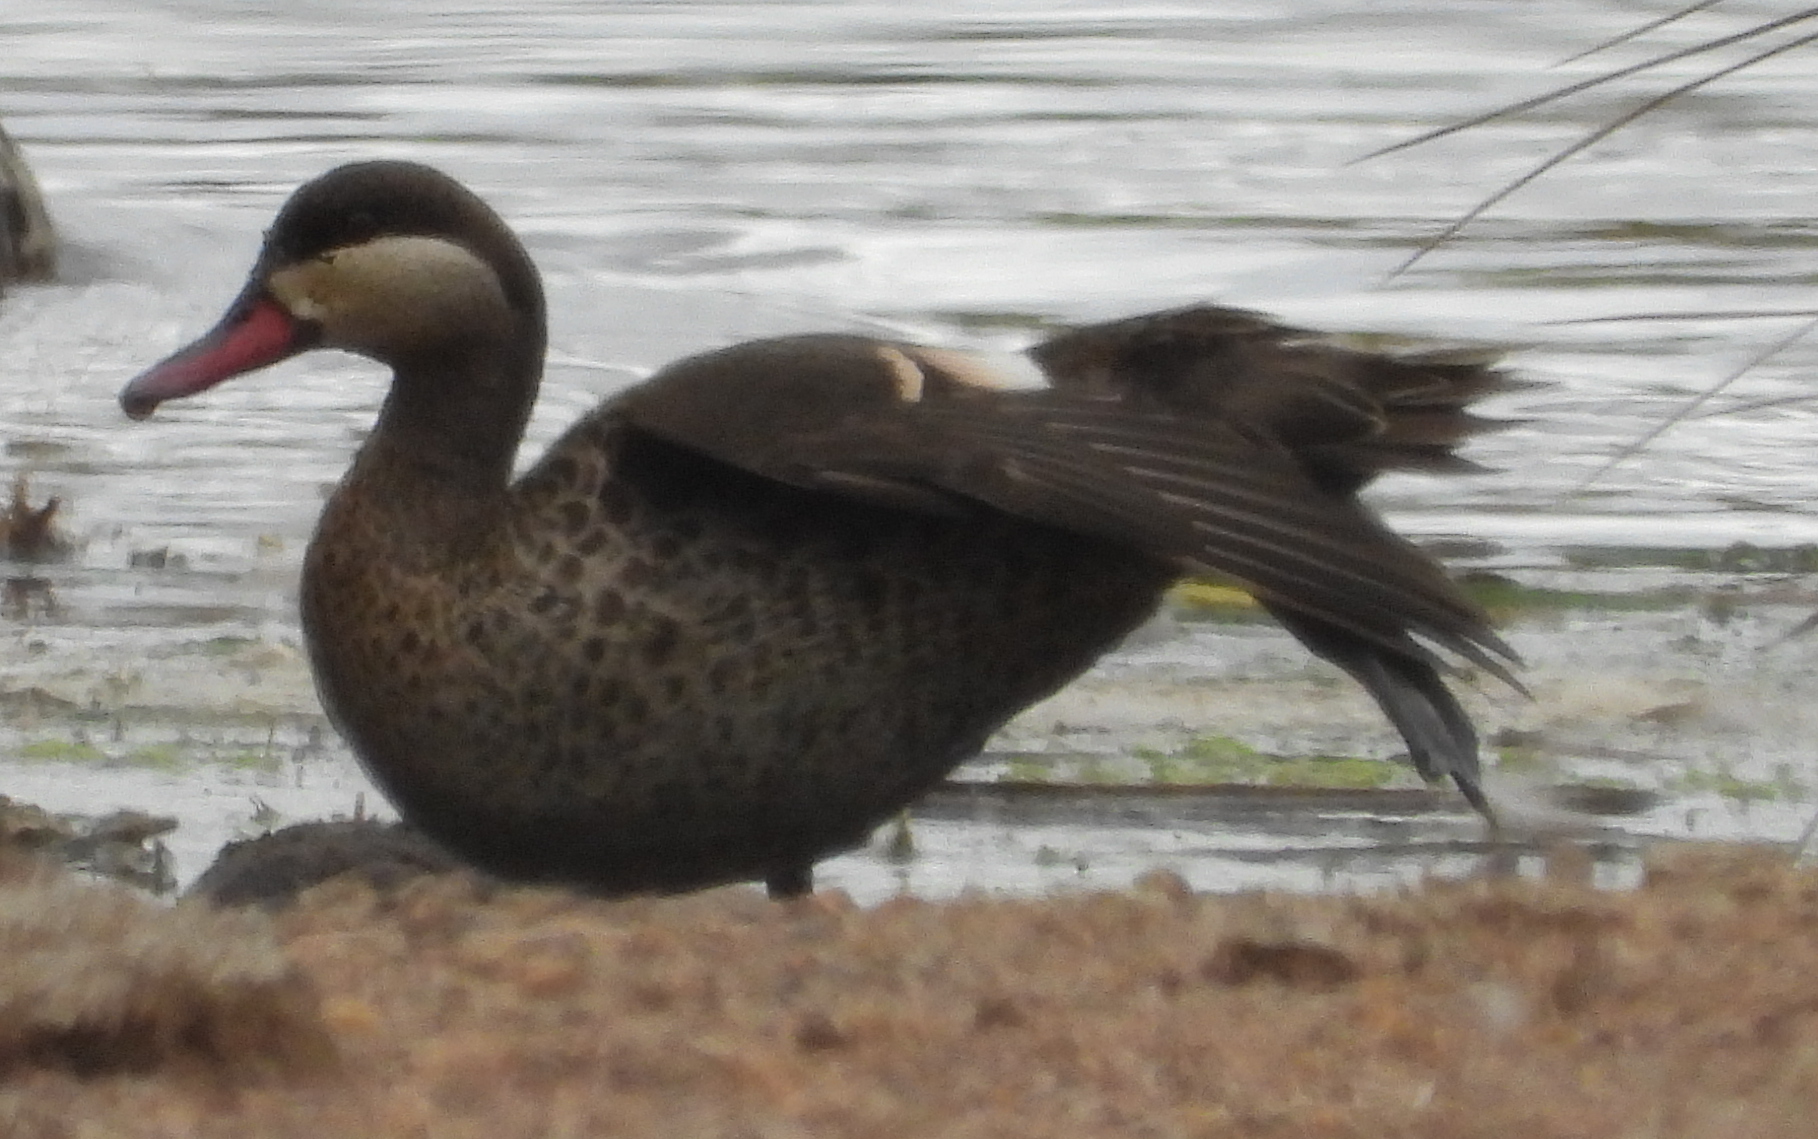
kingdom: Animalia
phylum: Chordata
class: Aves
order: Anseriformes
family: Anatidae
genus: Anas
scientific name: Anas erythrorhyncha
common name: Red-billed teal
